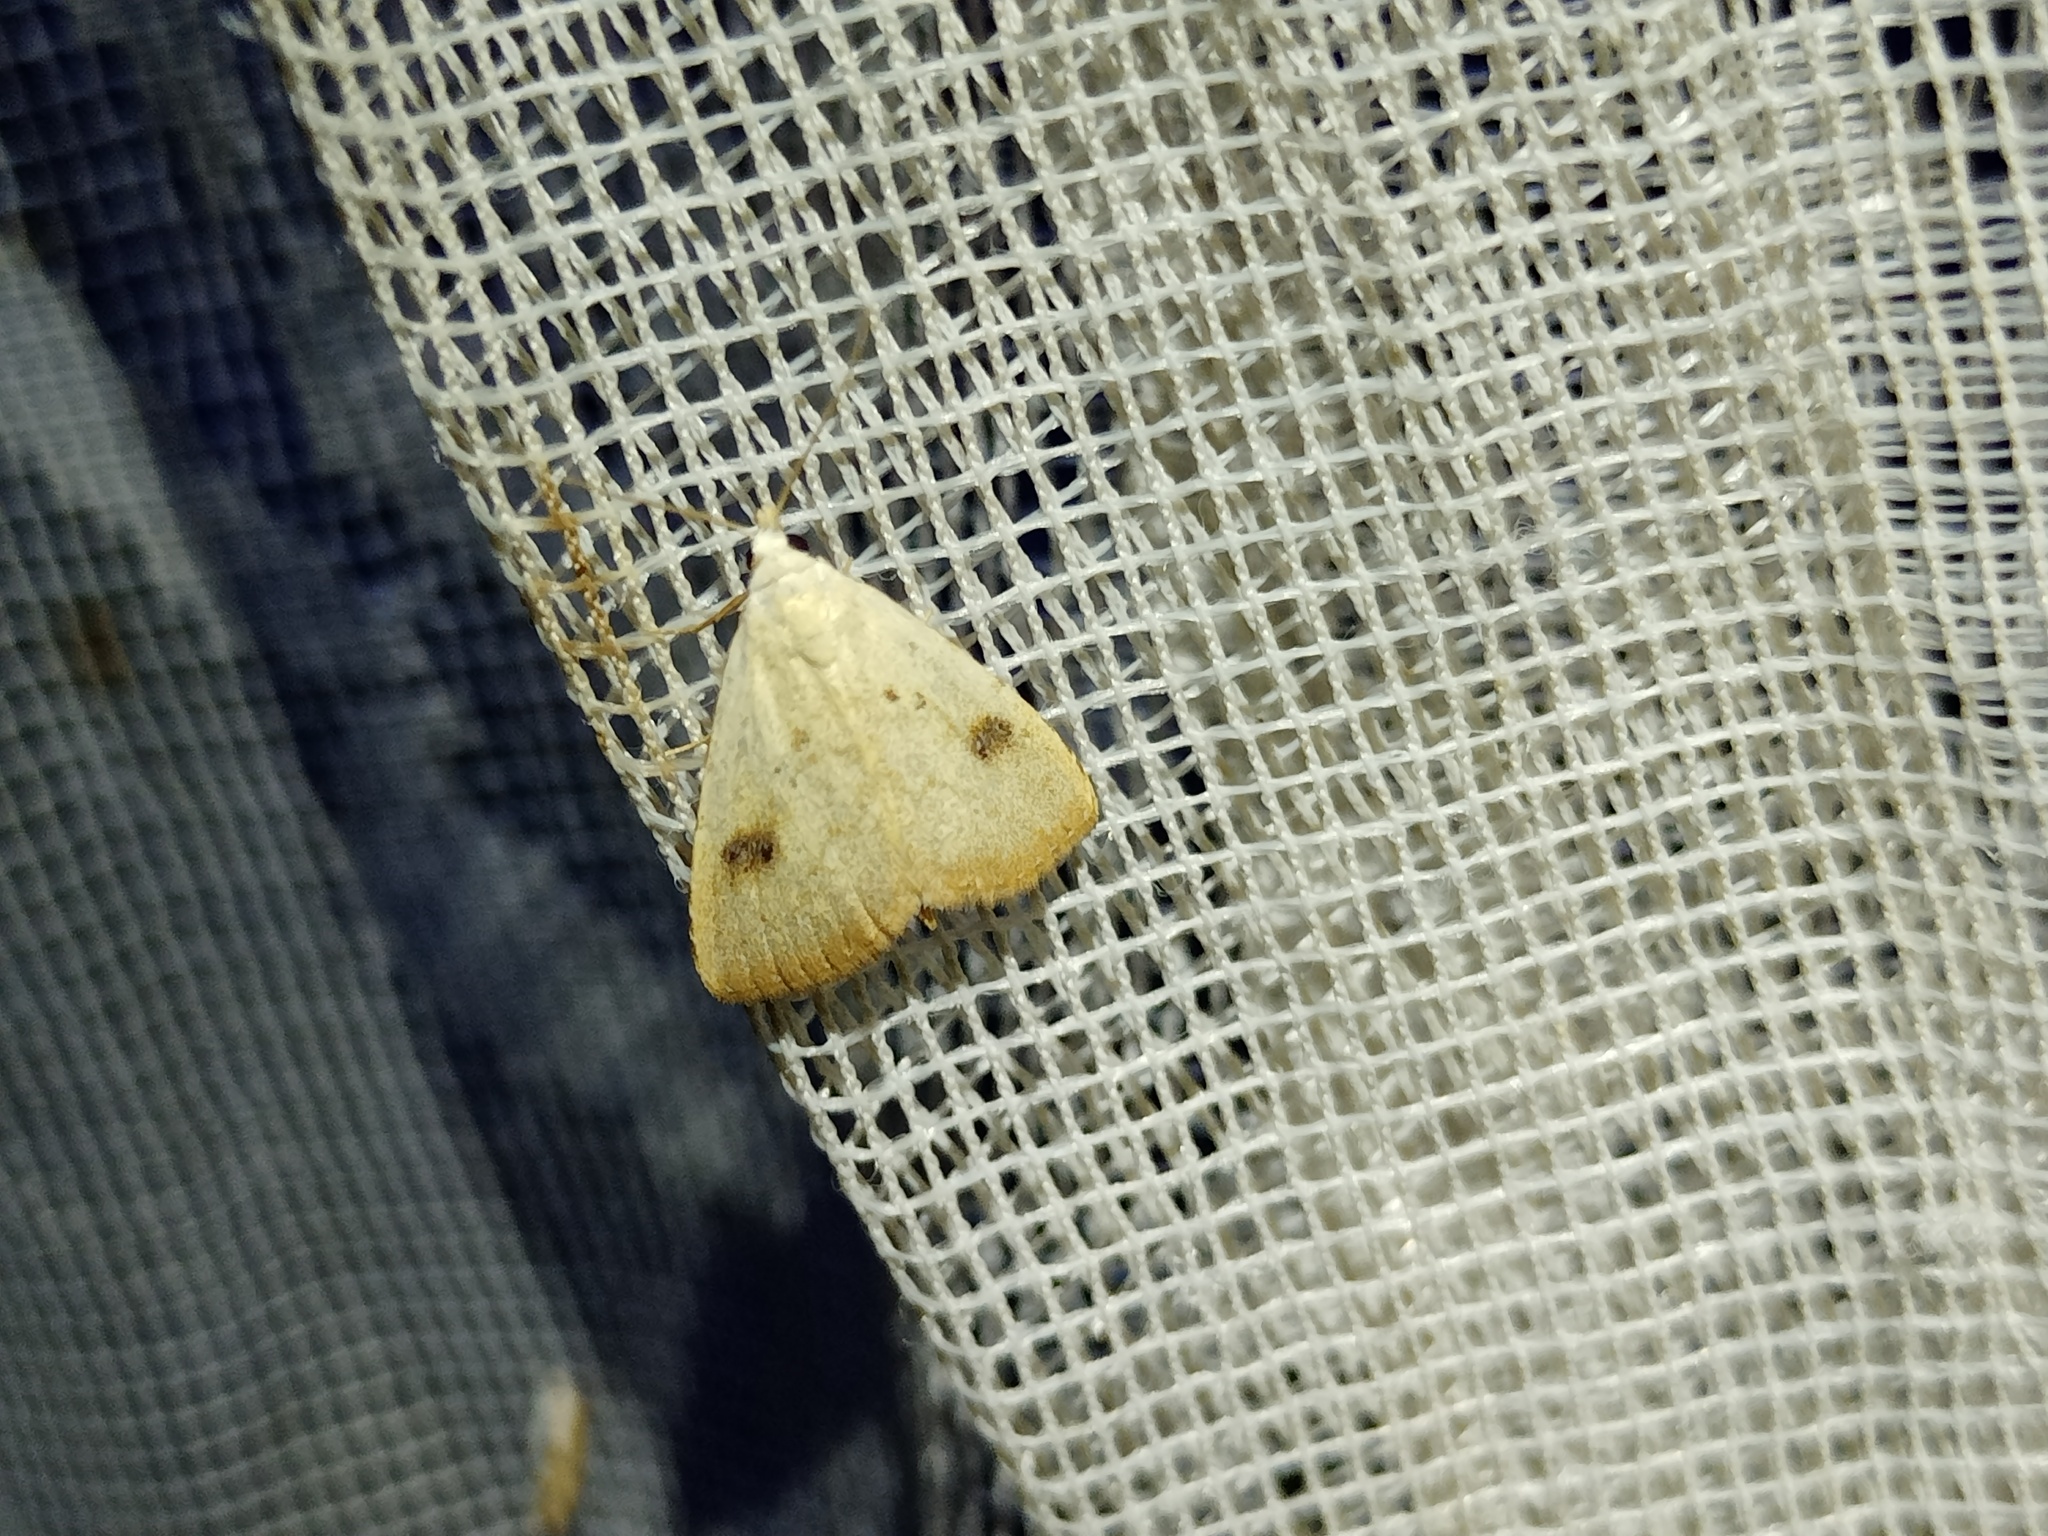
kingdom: Animalia
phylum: Arthropoda
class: Insecta
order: Lepidoptera
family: Erebidae
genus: Rivula
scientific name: Rivula sericealis
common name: Straw dot
